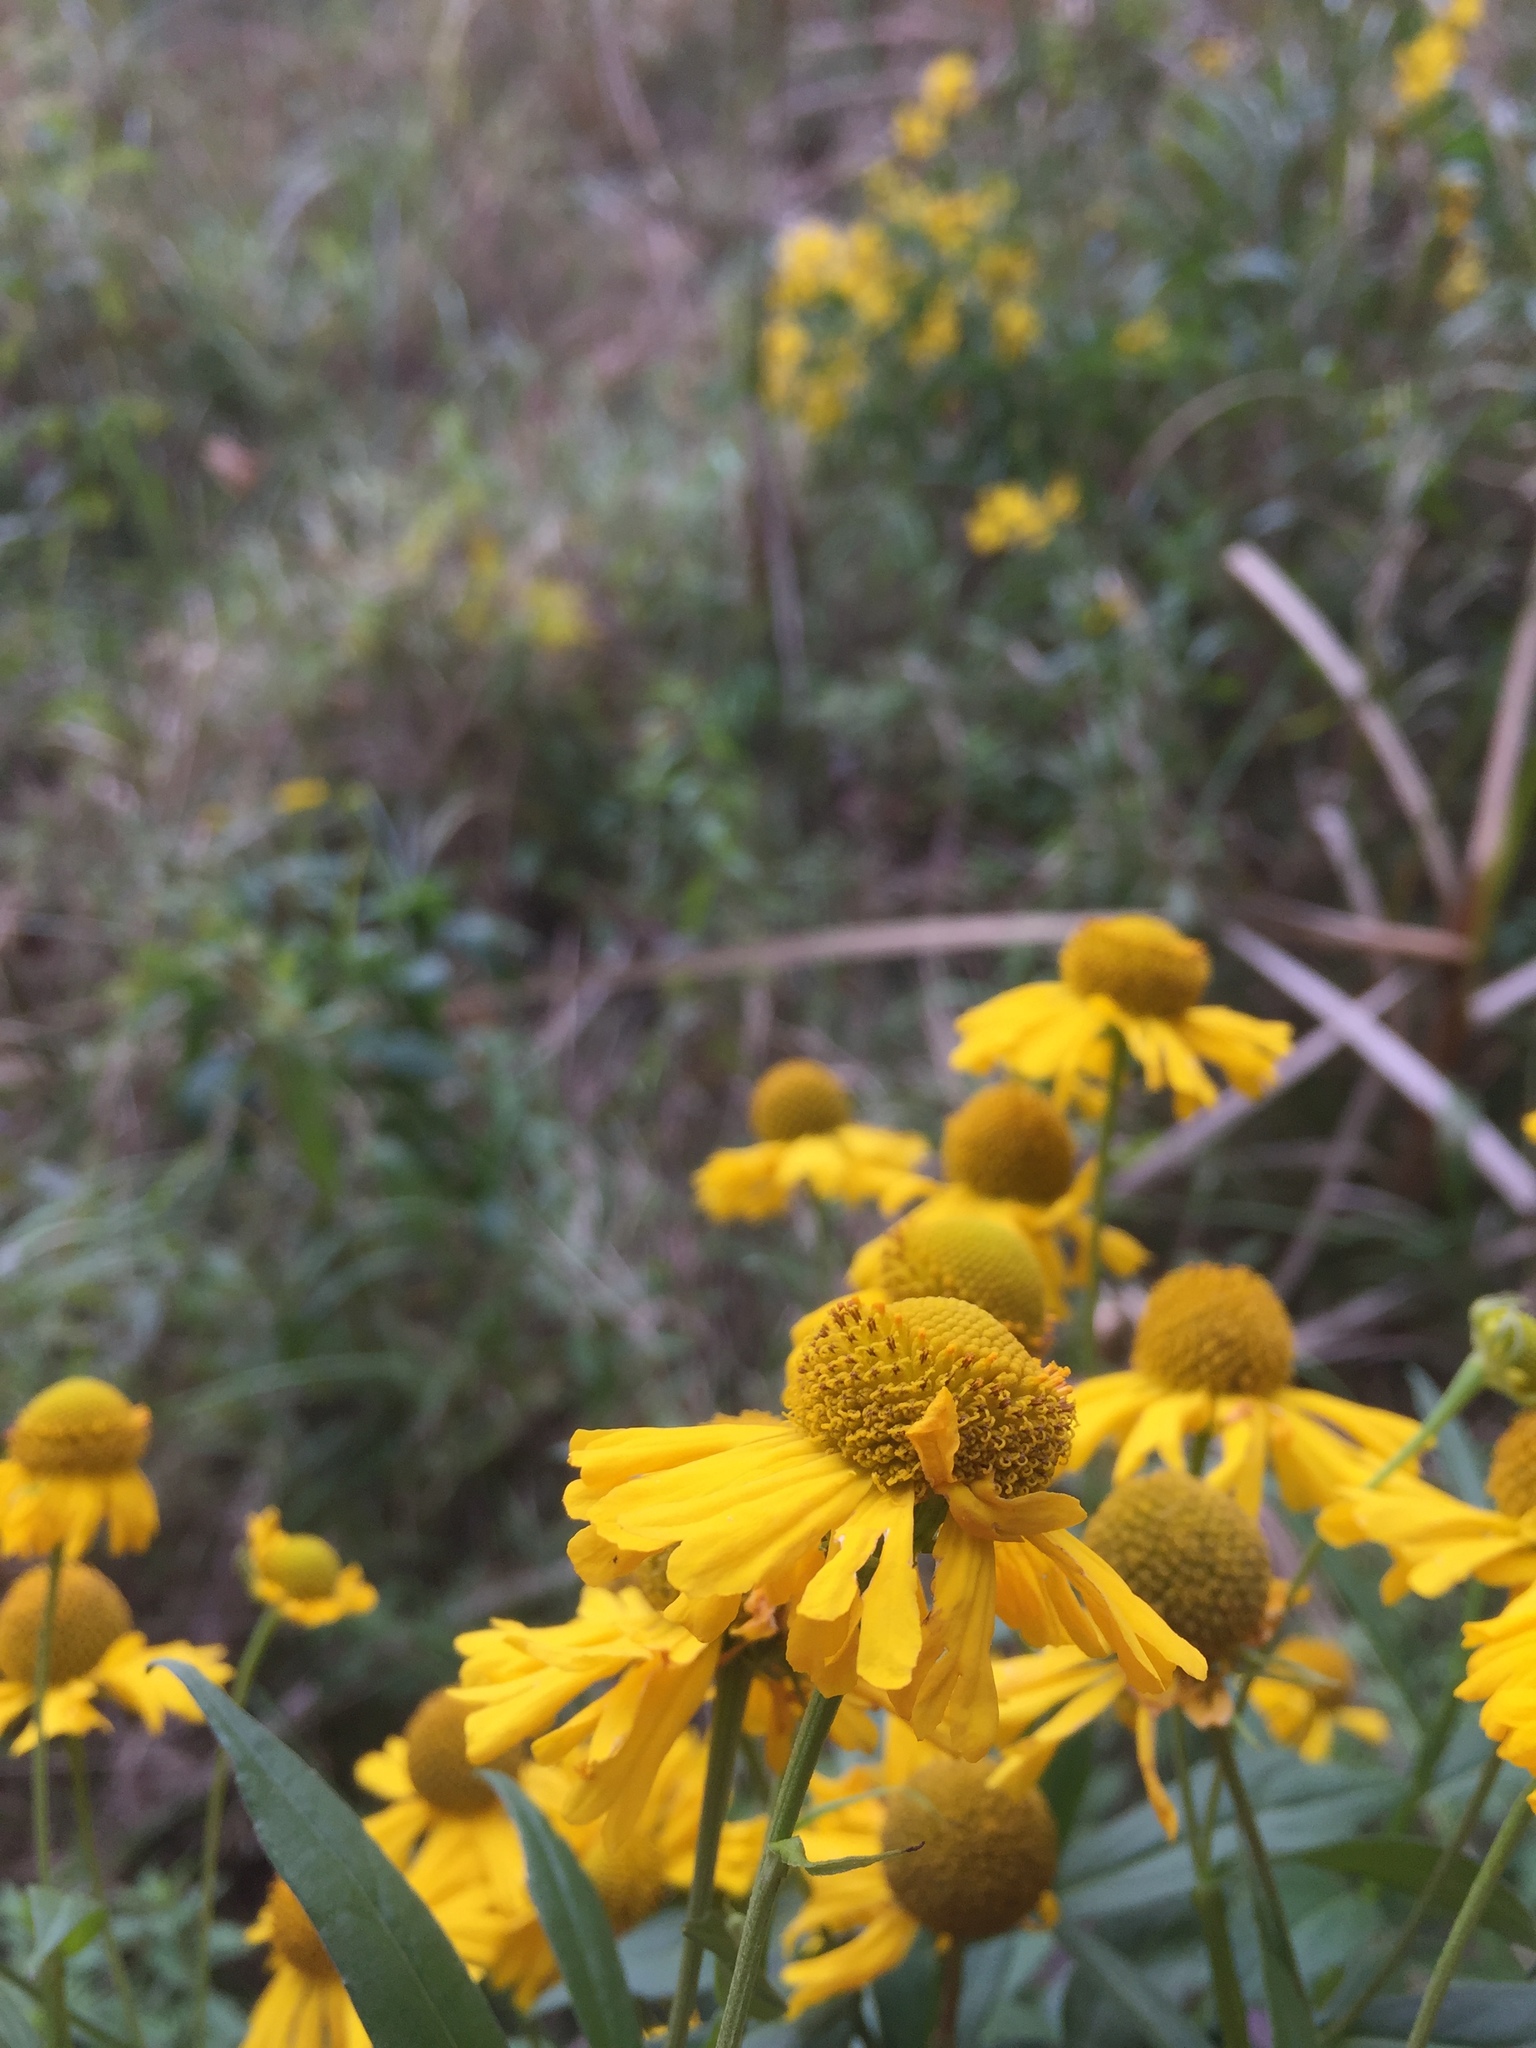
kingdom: Plantae
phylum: Tracheophyta
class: Magnoliopsida
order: Asterales
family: Asteraceae
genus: Helenium
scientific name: Helenium autumnale
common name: Sneezeweed
